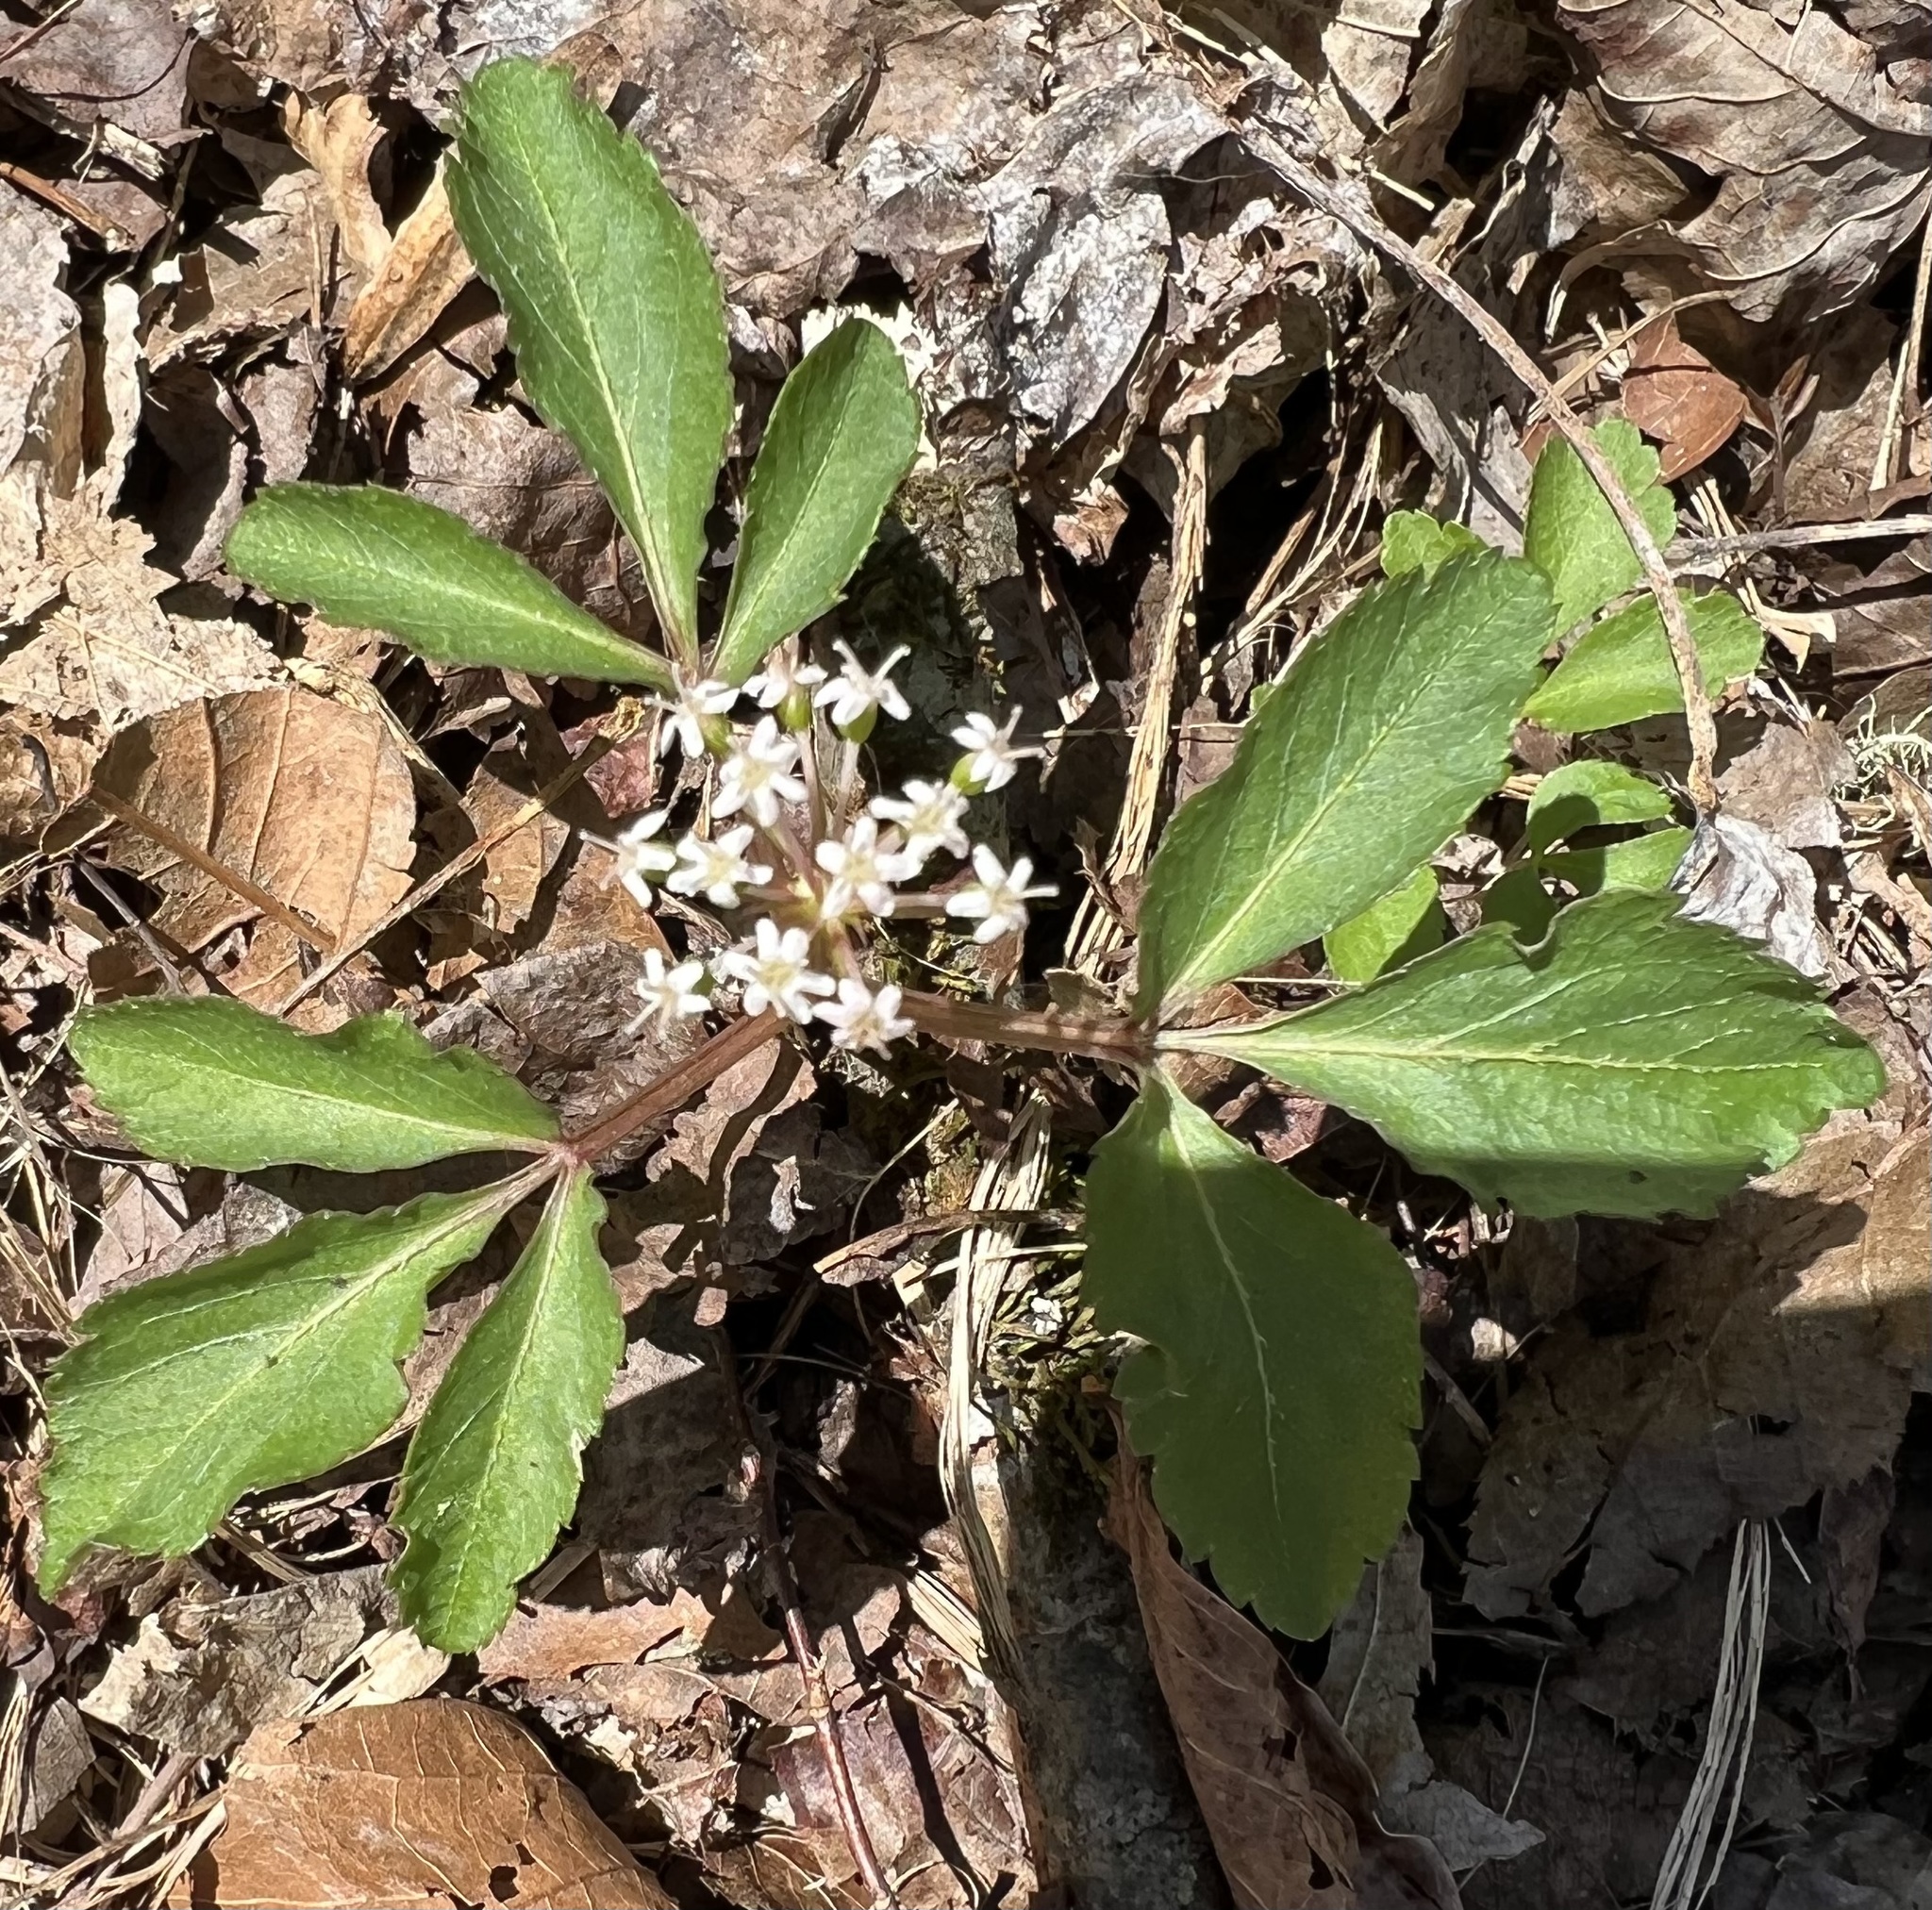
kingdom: Plantae
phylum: Tracheophyta
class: Magnoliopsida
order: Apiales
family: Araliaceae
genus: Panax
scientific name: Panax trifolius
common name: Dwarf ginseng
